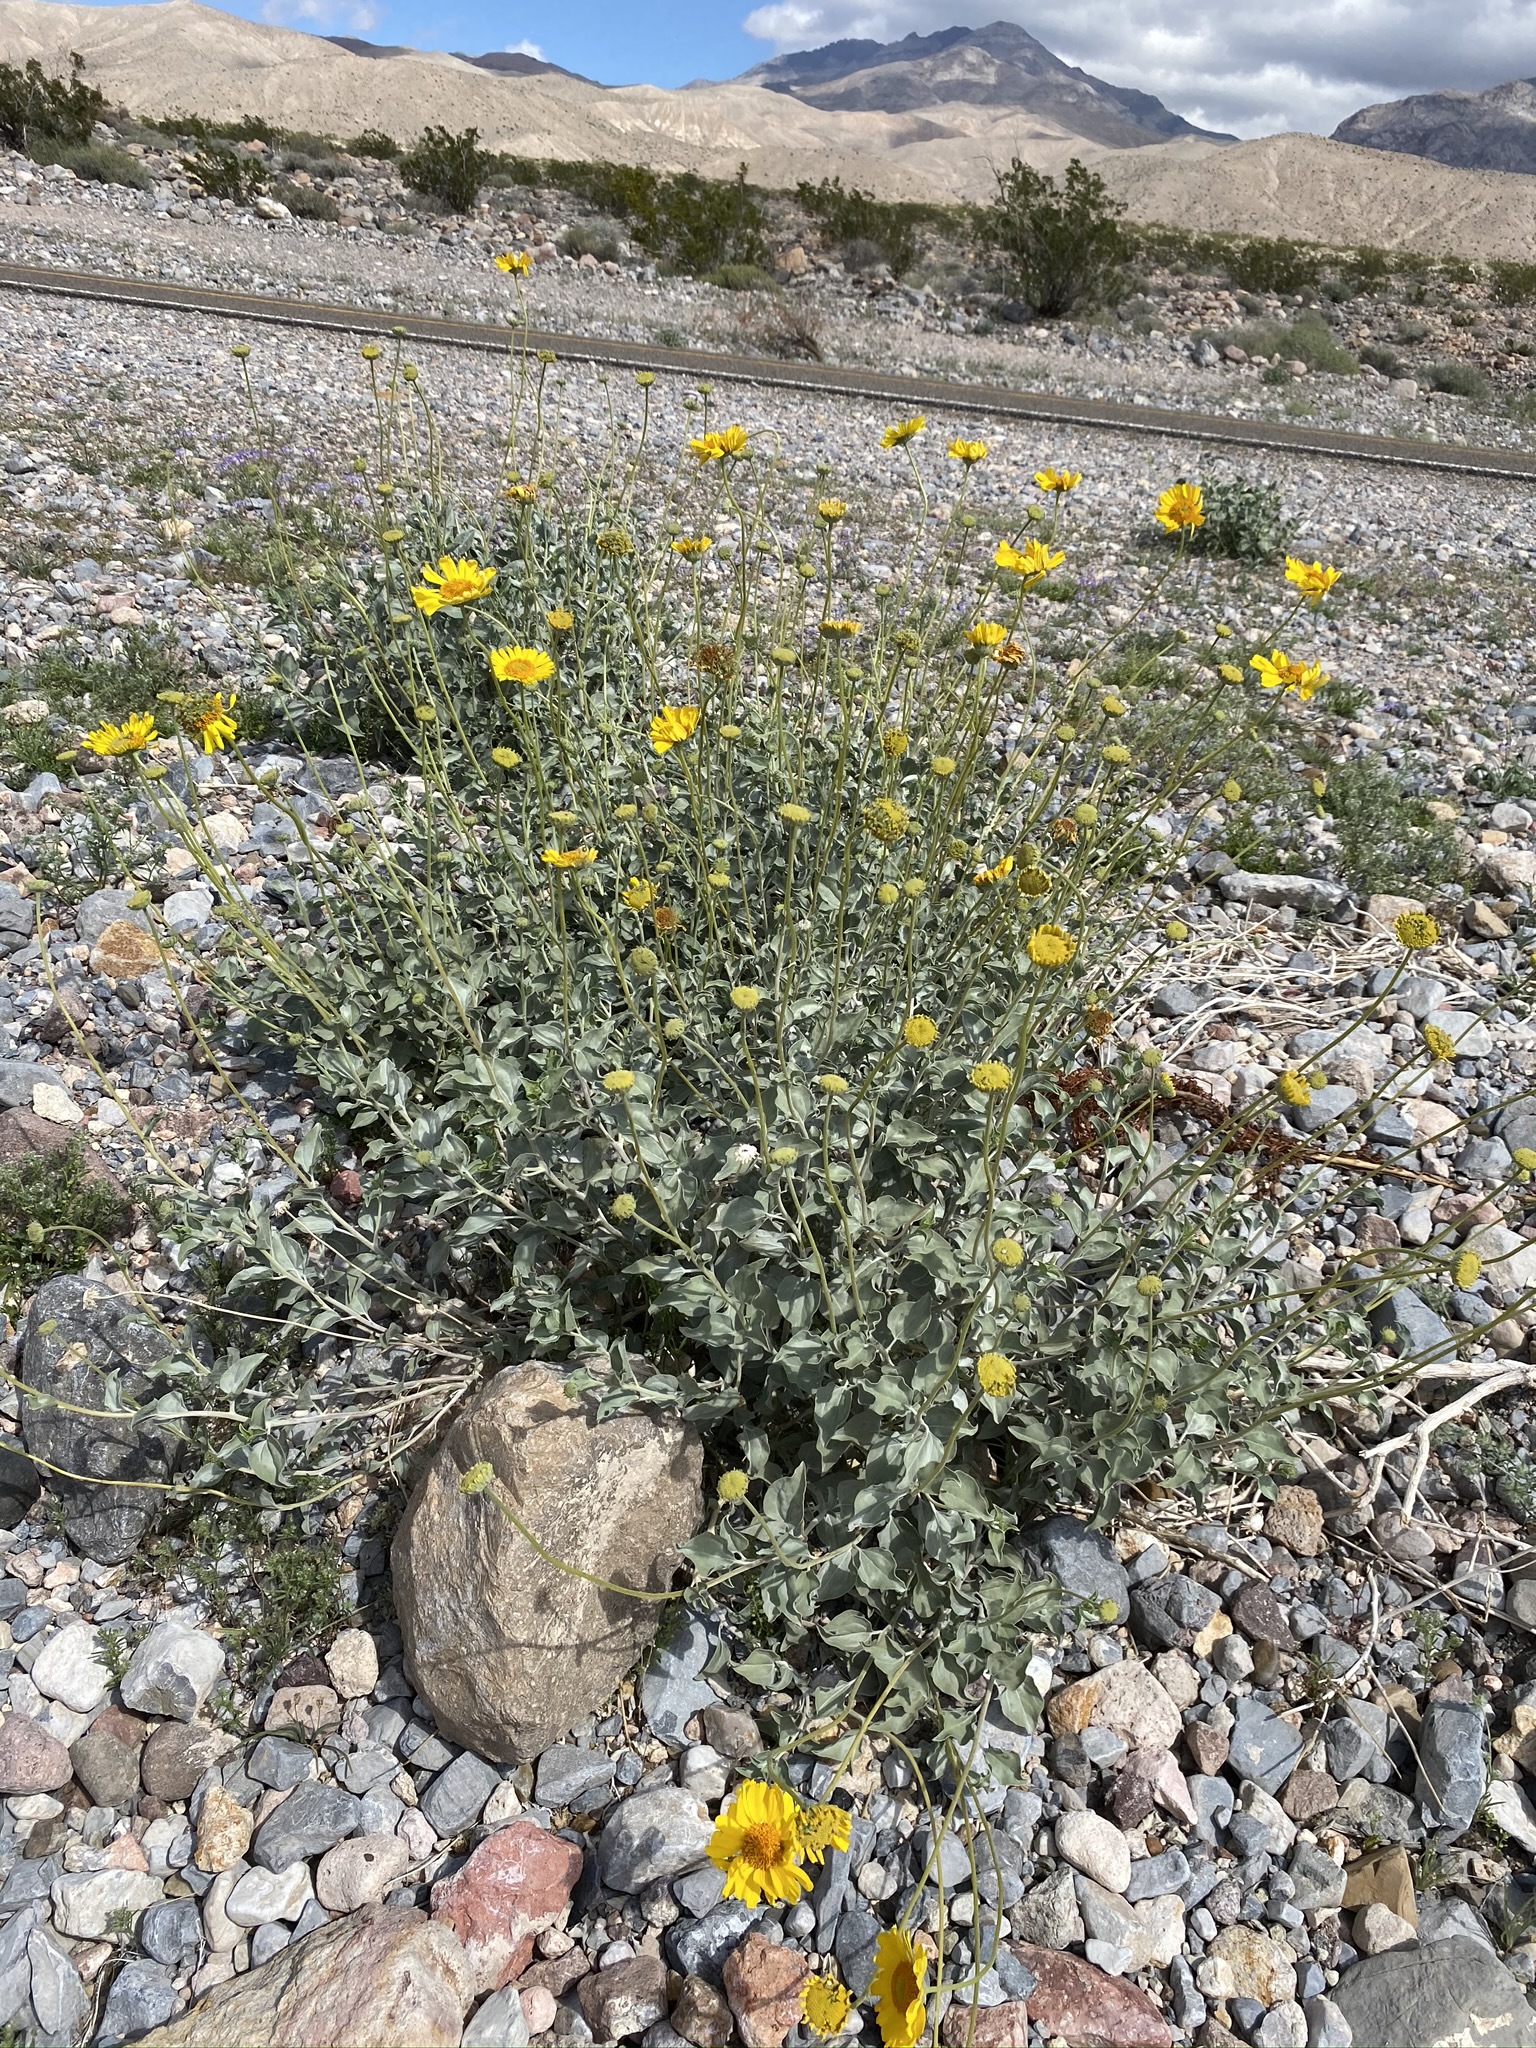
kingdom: Plantae
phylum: Tracheophyta
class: Magnoliopsida
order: Asterales
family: Asteraceae
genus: Encelia
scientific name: Encelia actoni
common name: Acton encelia
